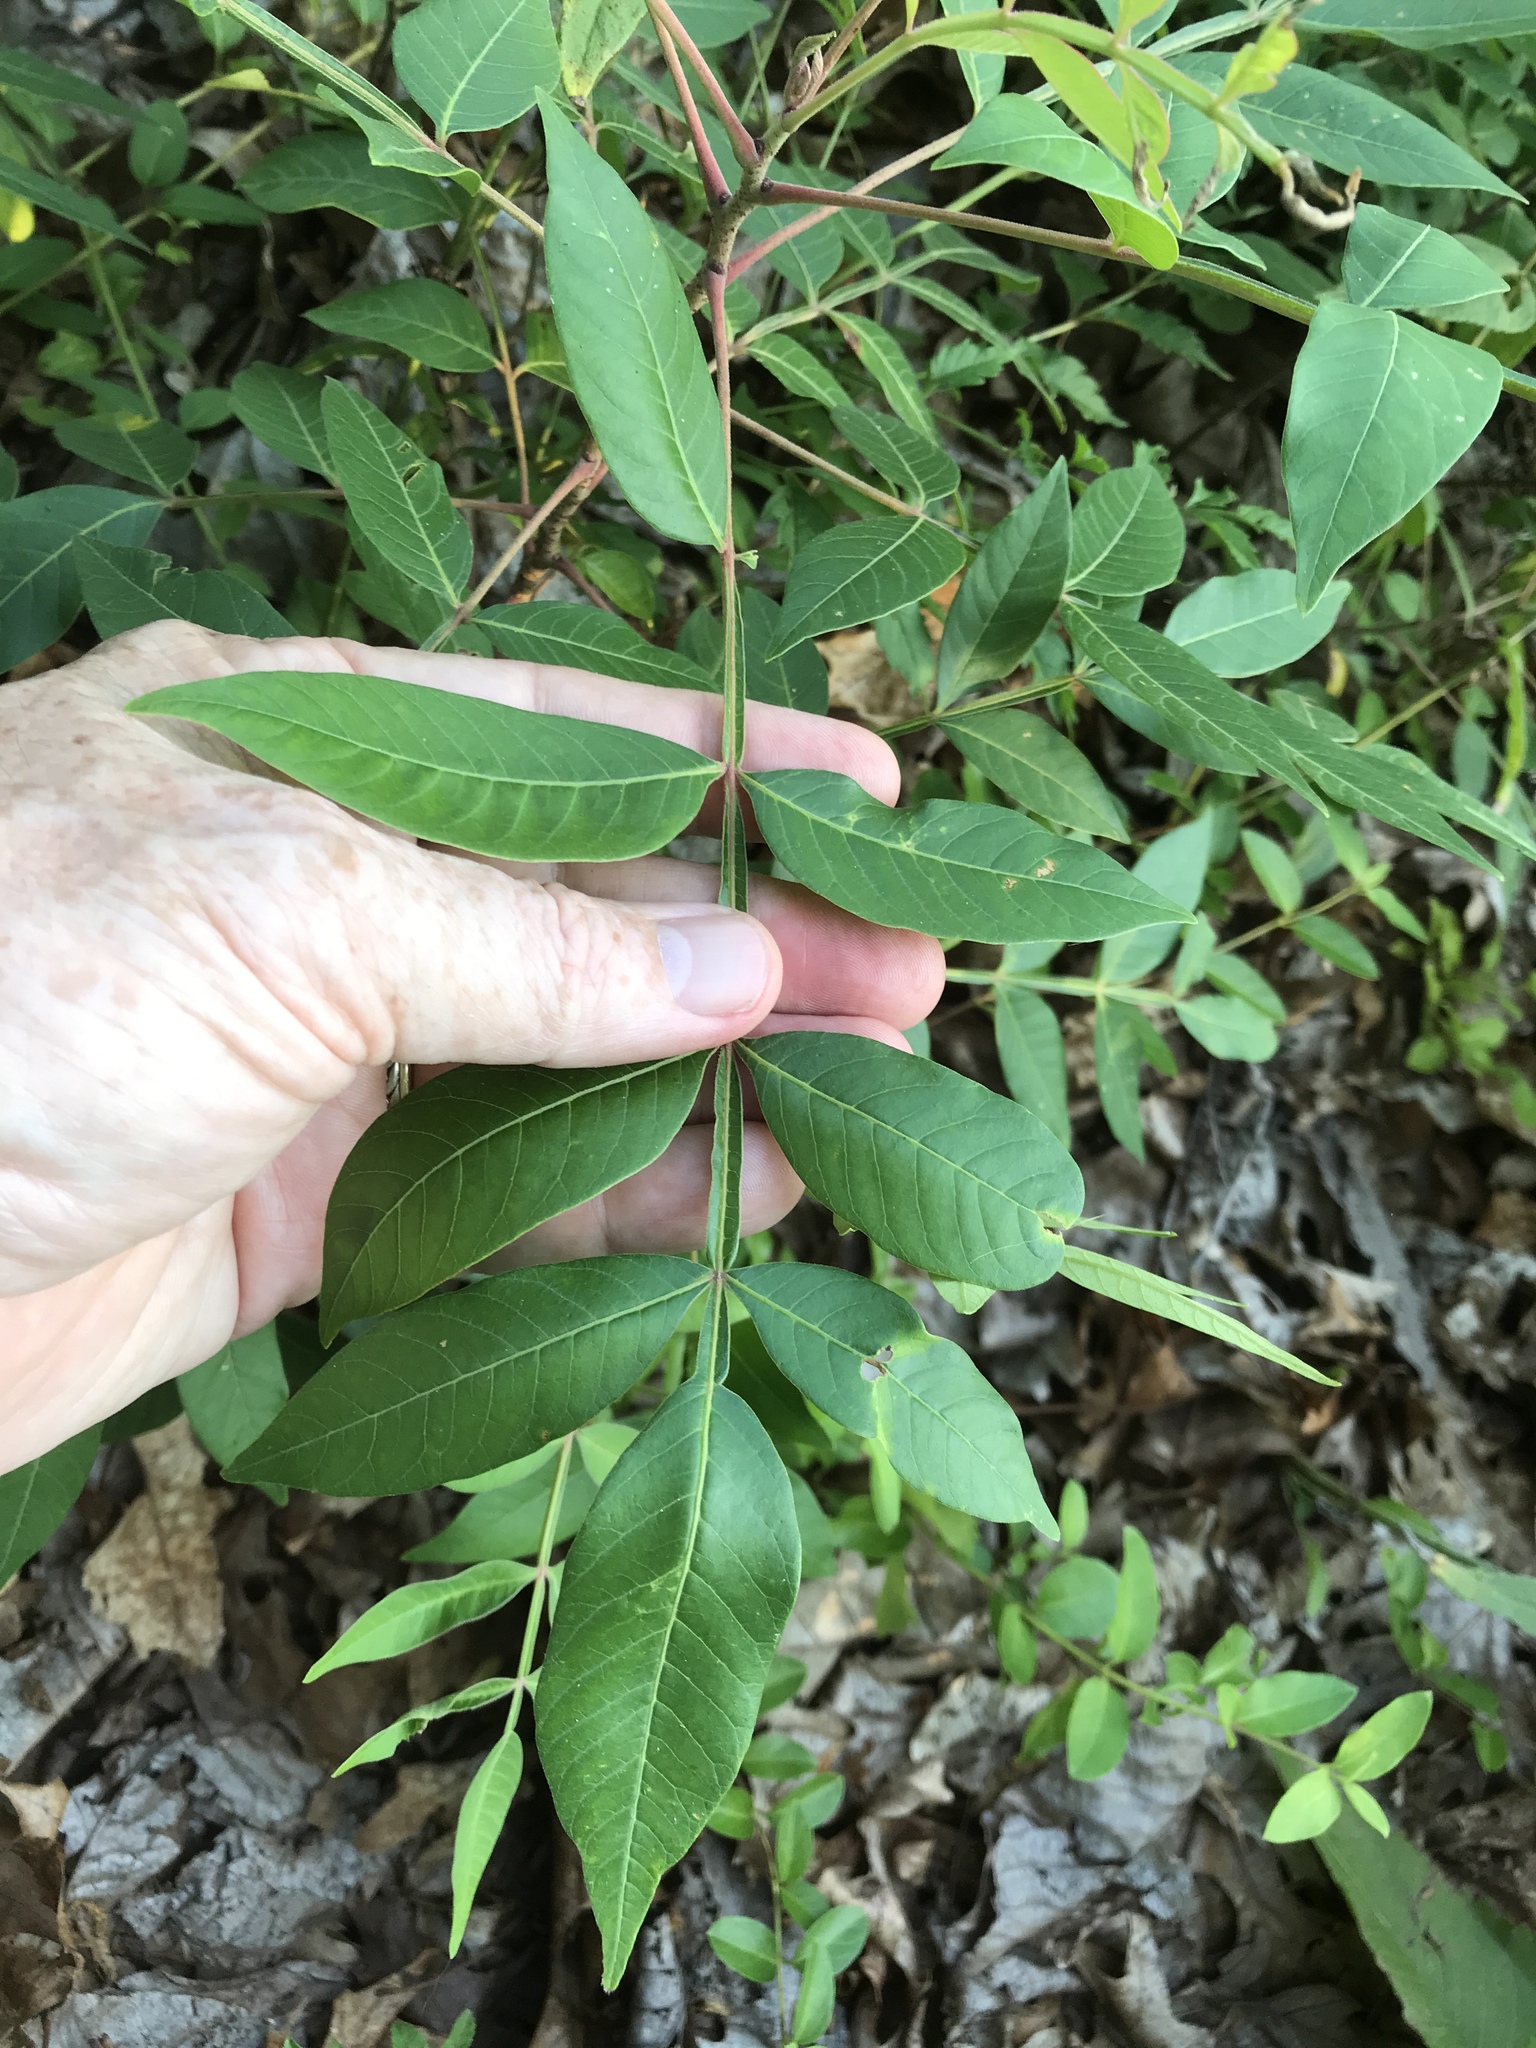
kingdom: Plantae
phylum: Tracheophyta
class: Magnoliopsida
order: Sapindales
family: Anacardiaceae
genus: Rhus
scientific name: Rhus copallina
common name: Shining sumac
